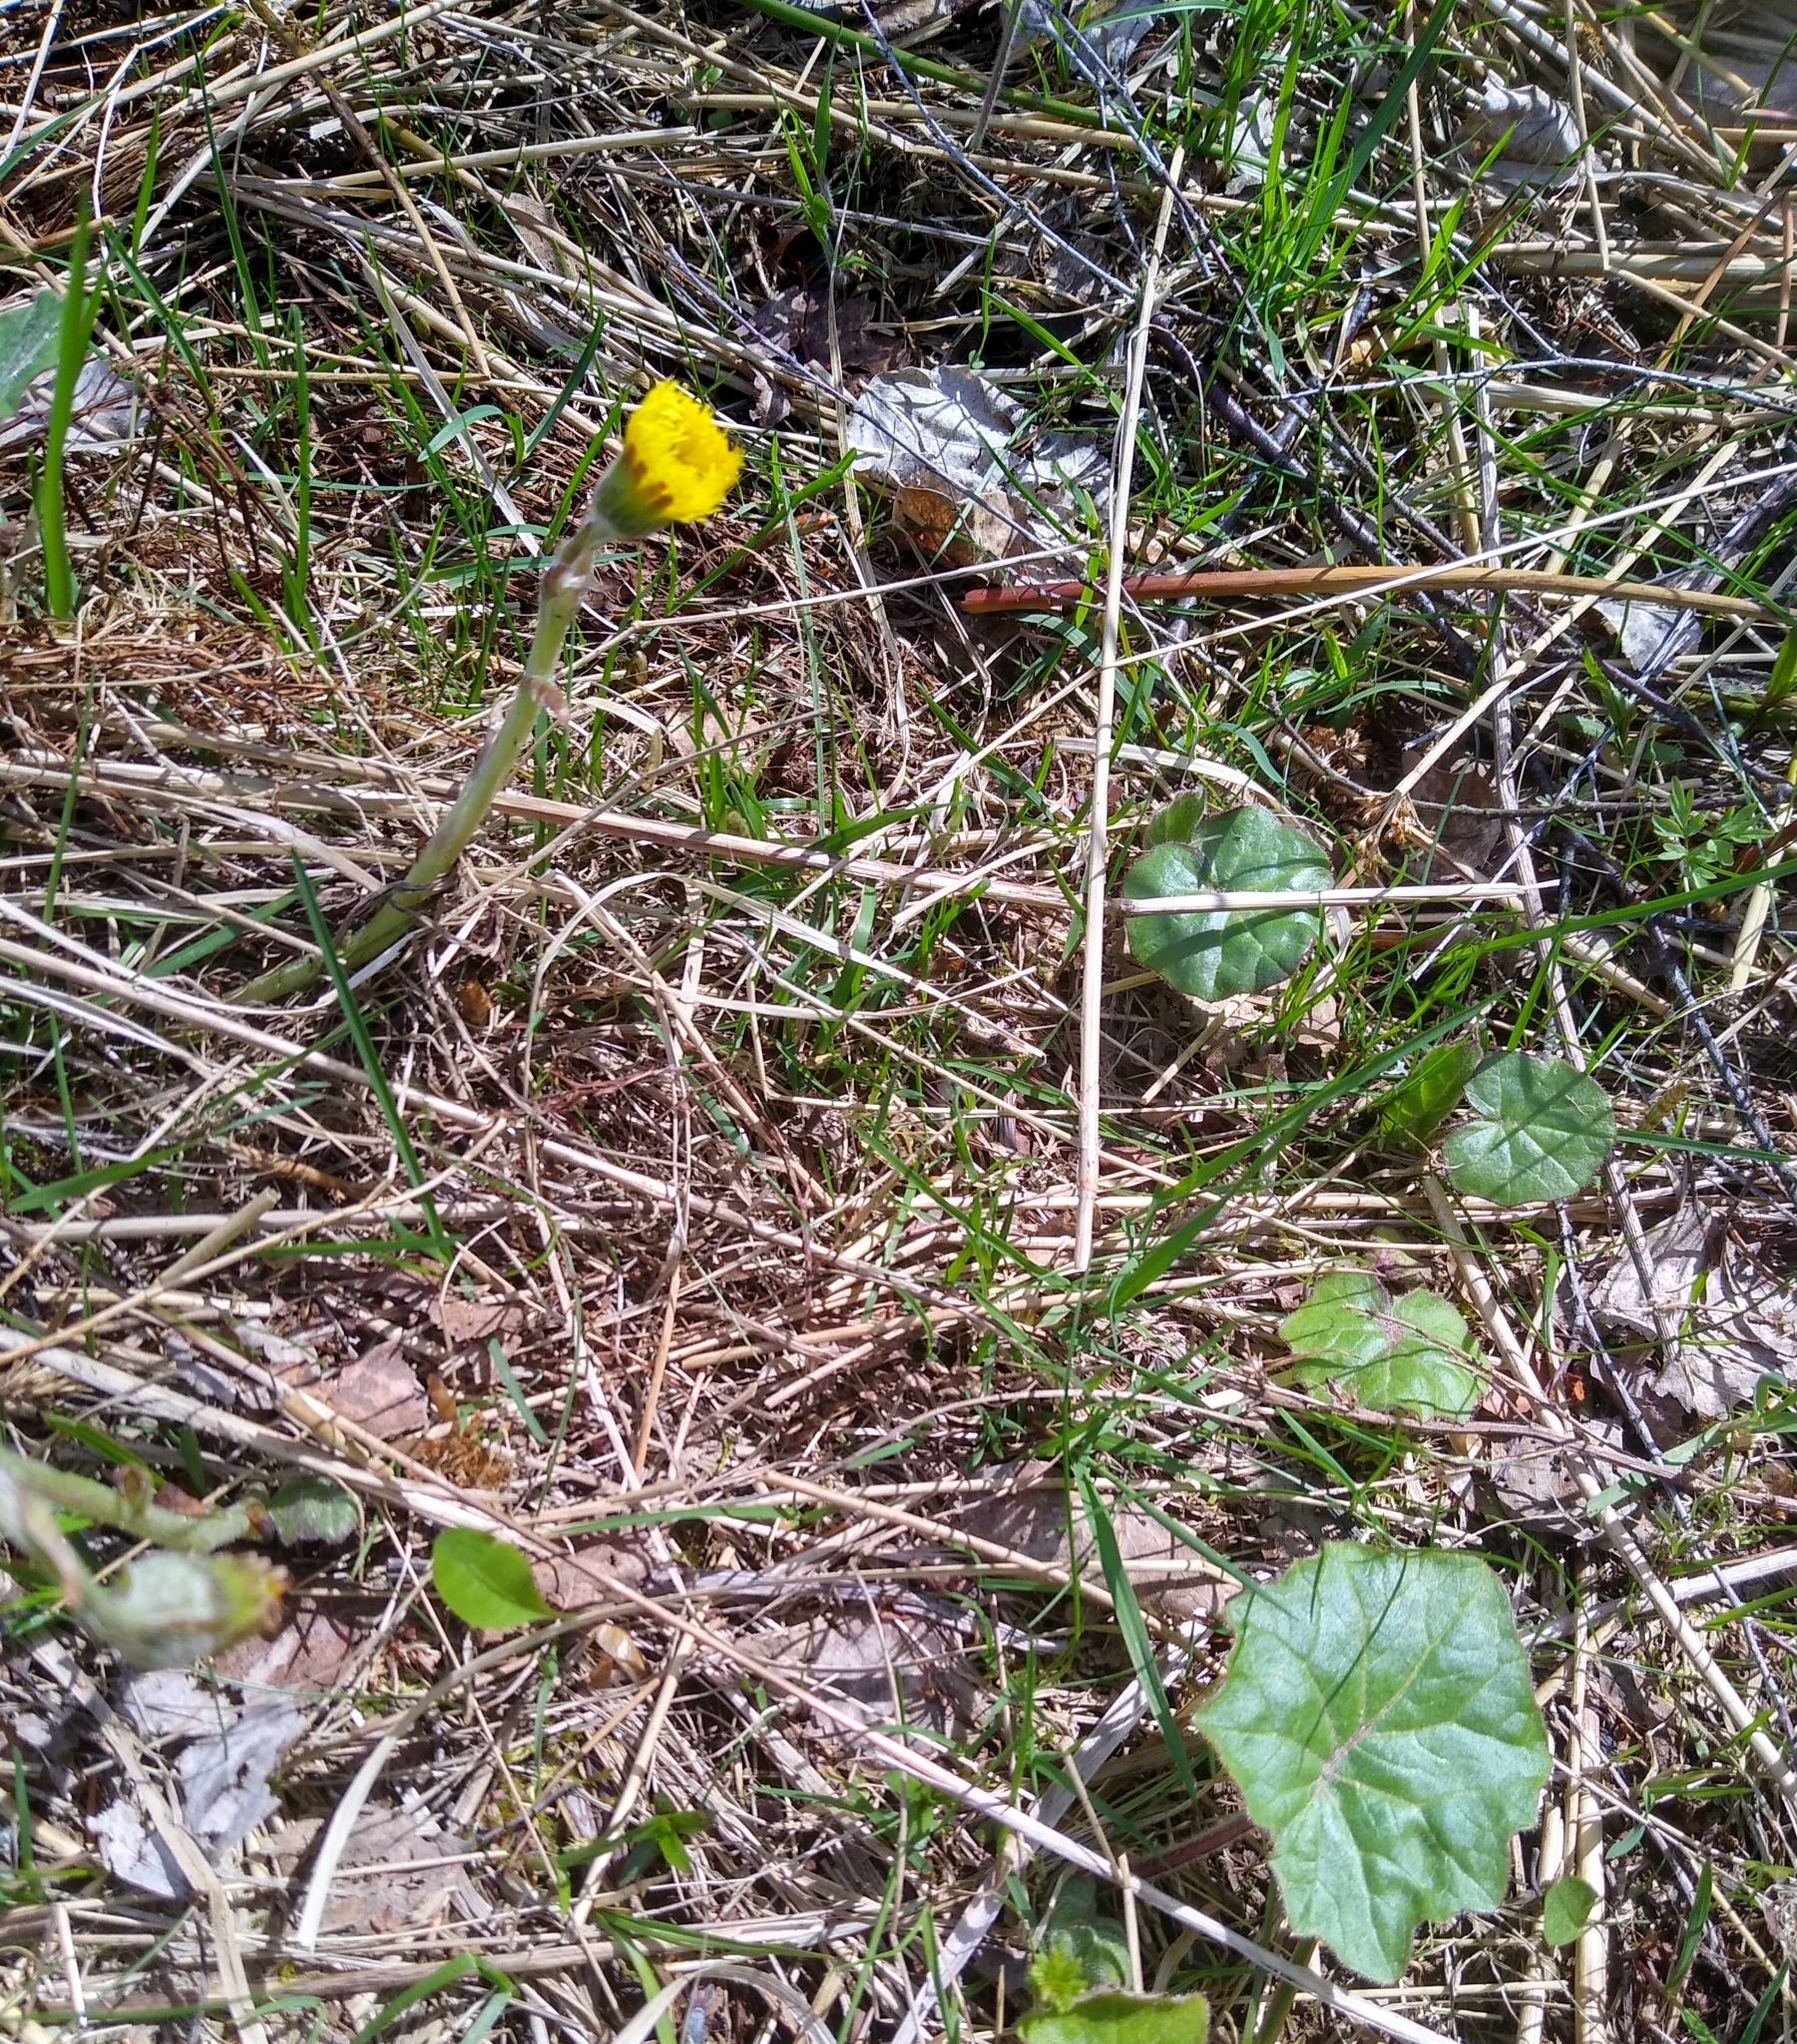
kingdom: Plantae
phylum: Tracheophyta
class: Magnoliopsida
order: Asterales
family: Asteraceae
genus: Tussilago
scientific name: Tussilago farfara
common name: Coltsfoot
